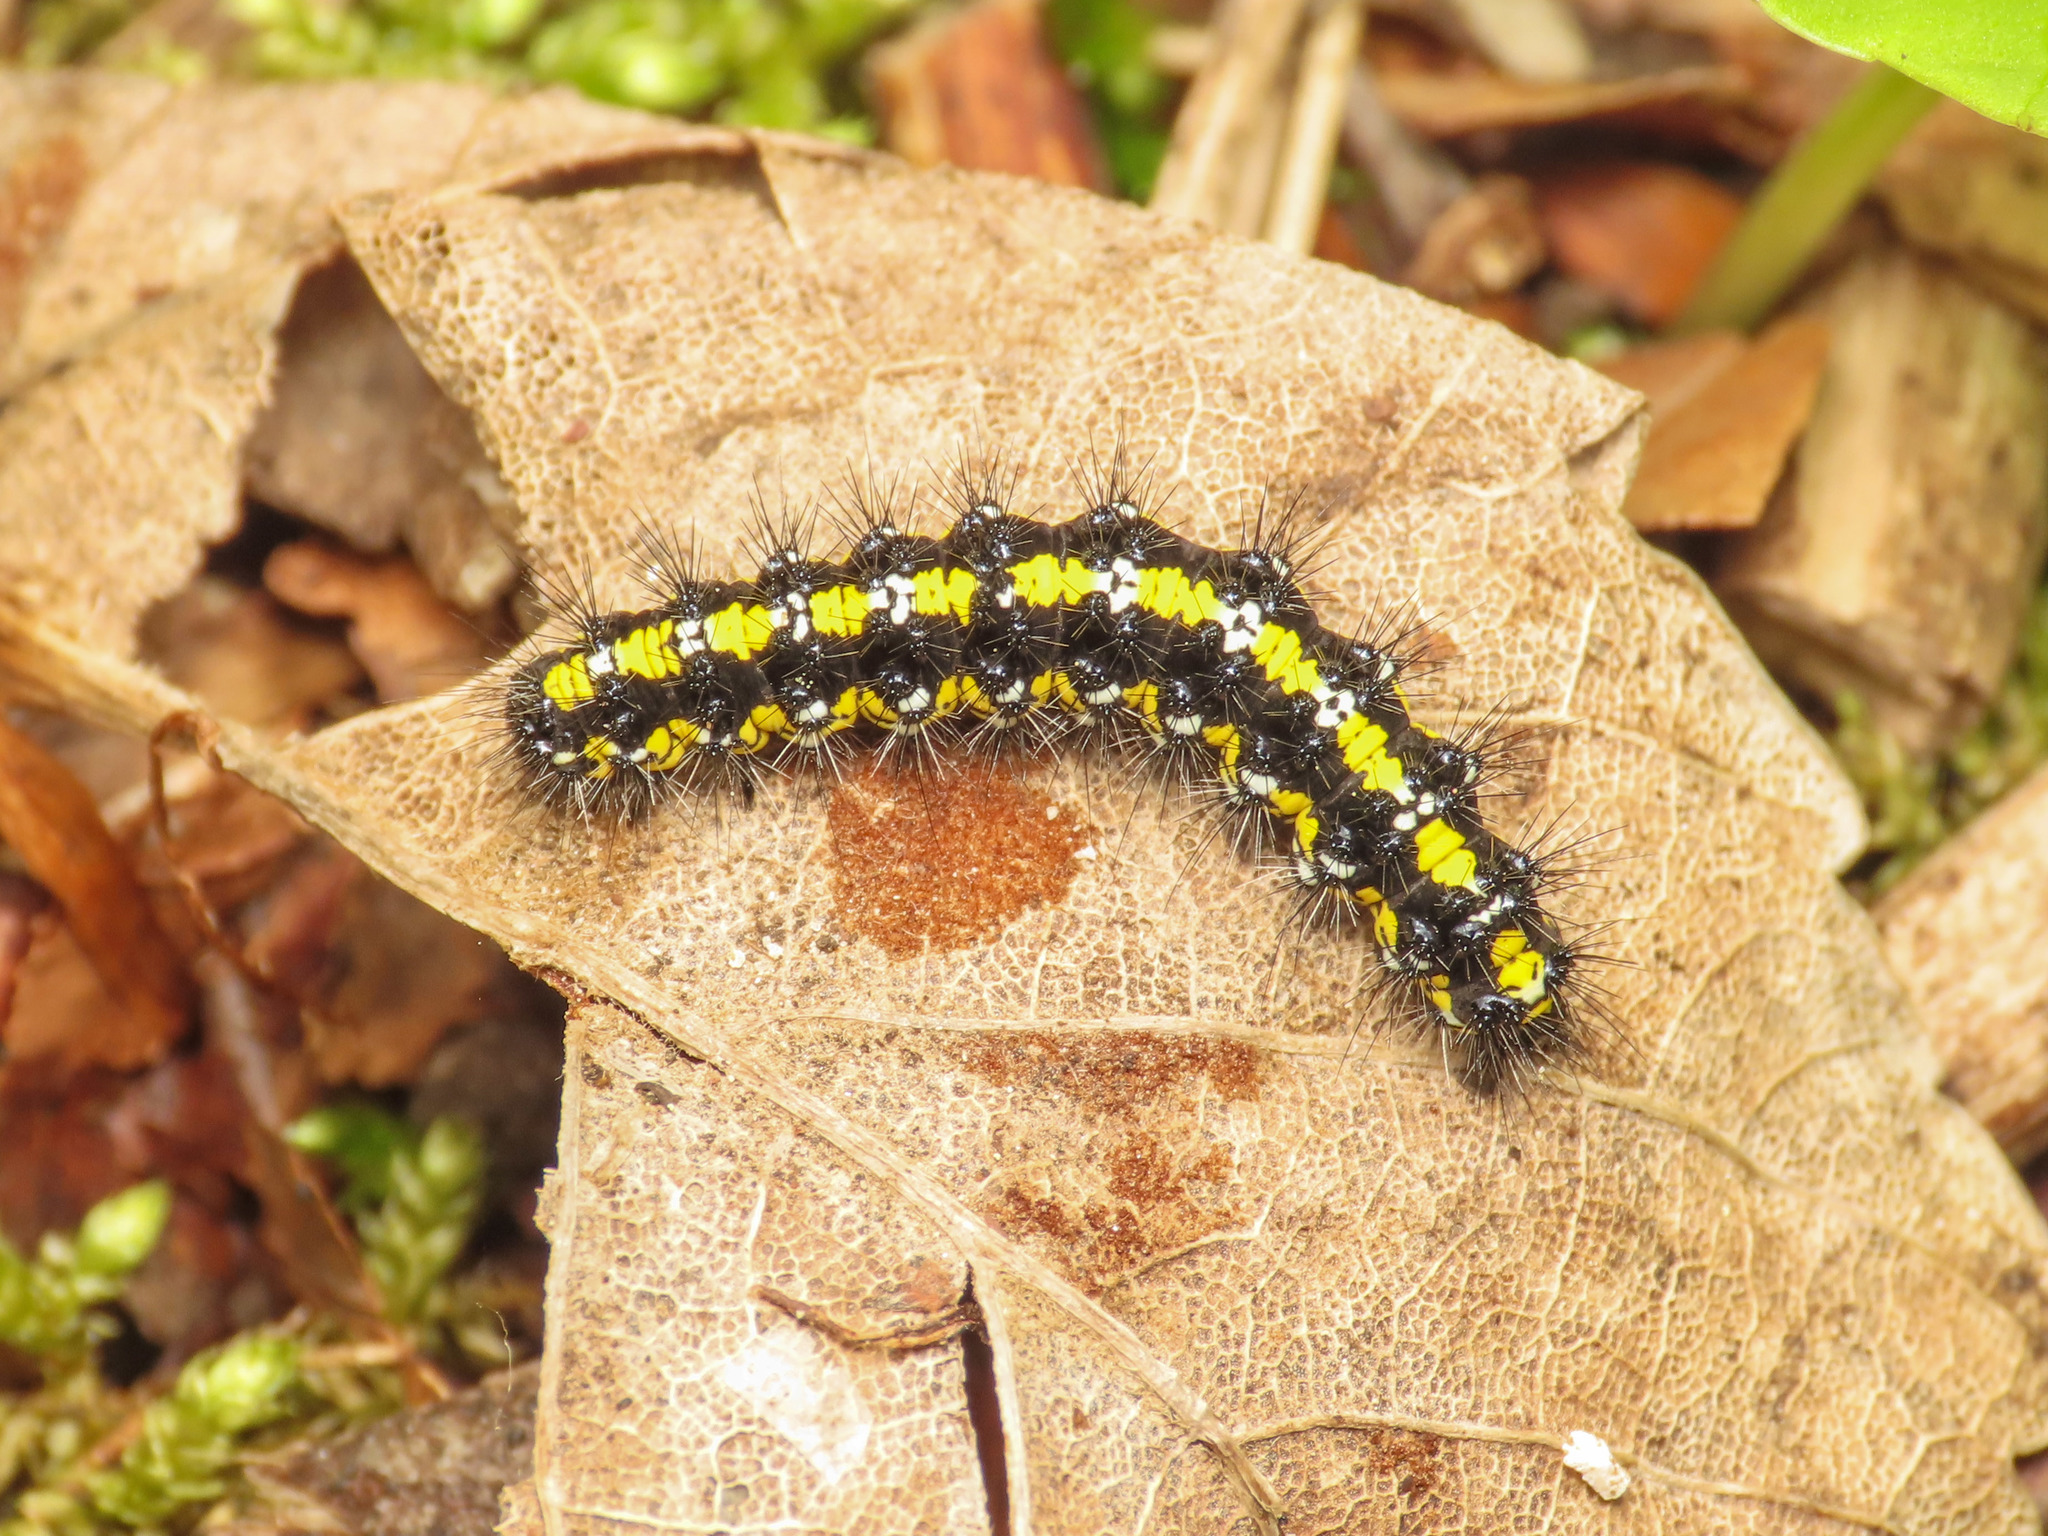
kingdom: Animalia
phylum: Arthropoda
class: Insecta
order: Lepidoptera
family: Erebidae
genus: Callimorpha
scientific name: Callimorpha dominula
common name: Scarlet tiger
